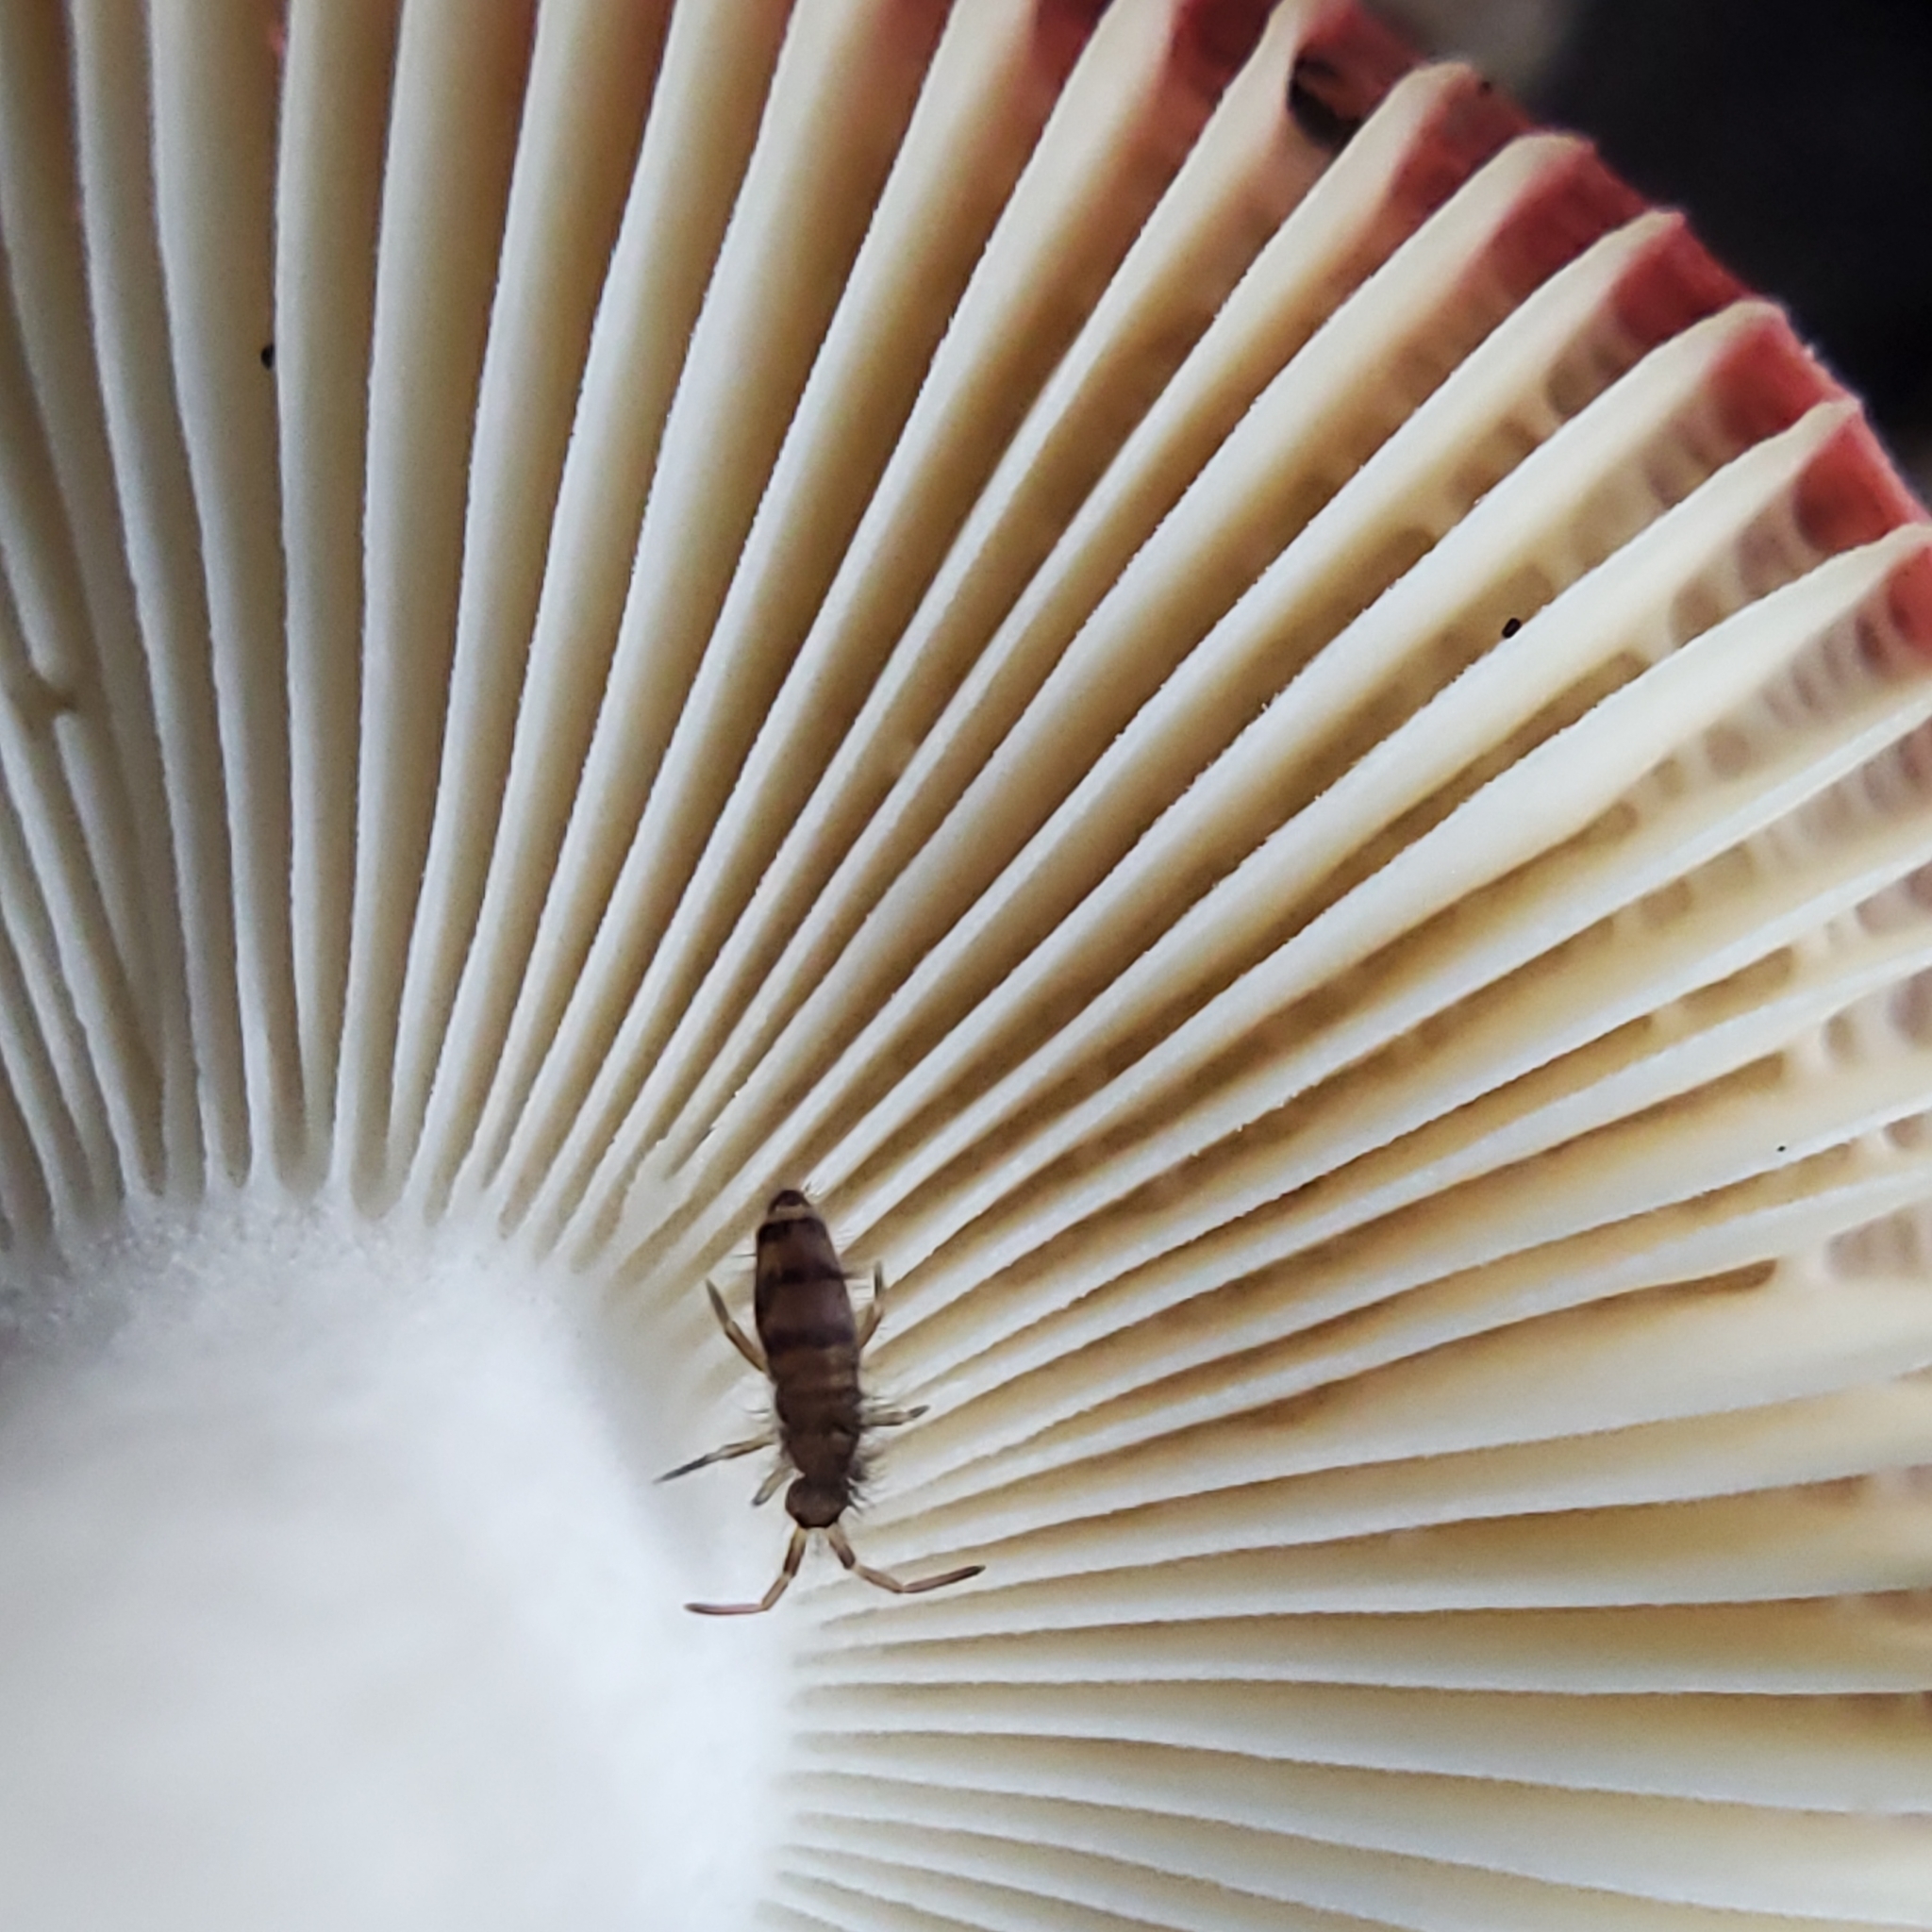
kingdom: Animalia
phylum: Arthropoda
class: Collembola
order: Entomobryomorpha
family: Entomobryidae
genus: Homidia
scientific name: Homidia sauteri
